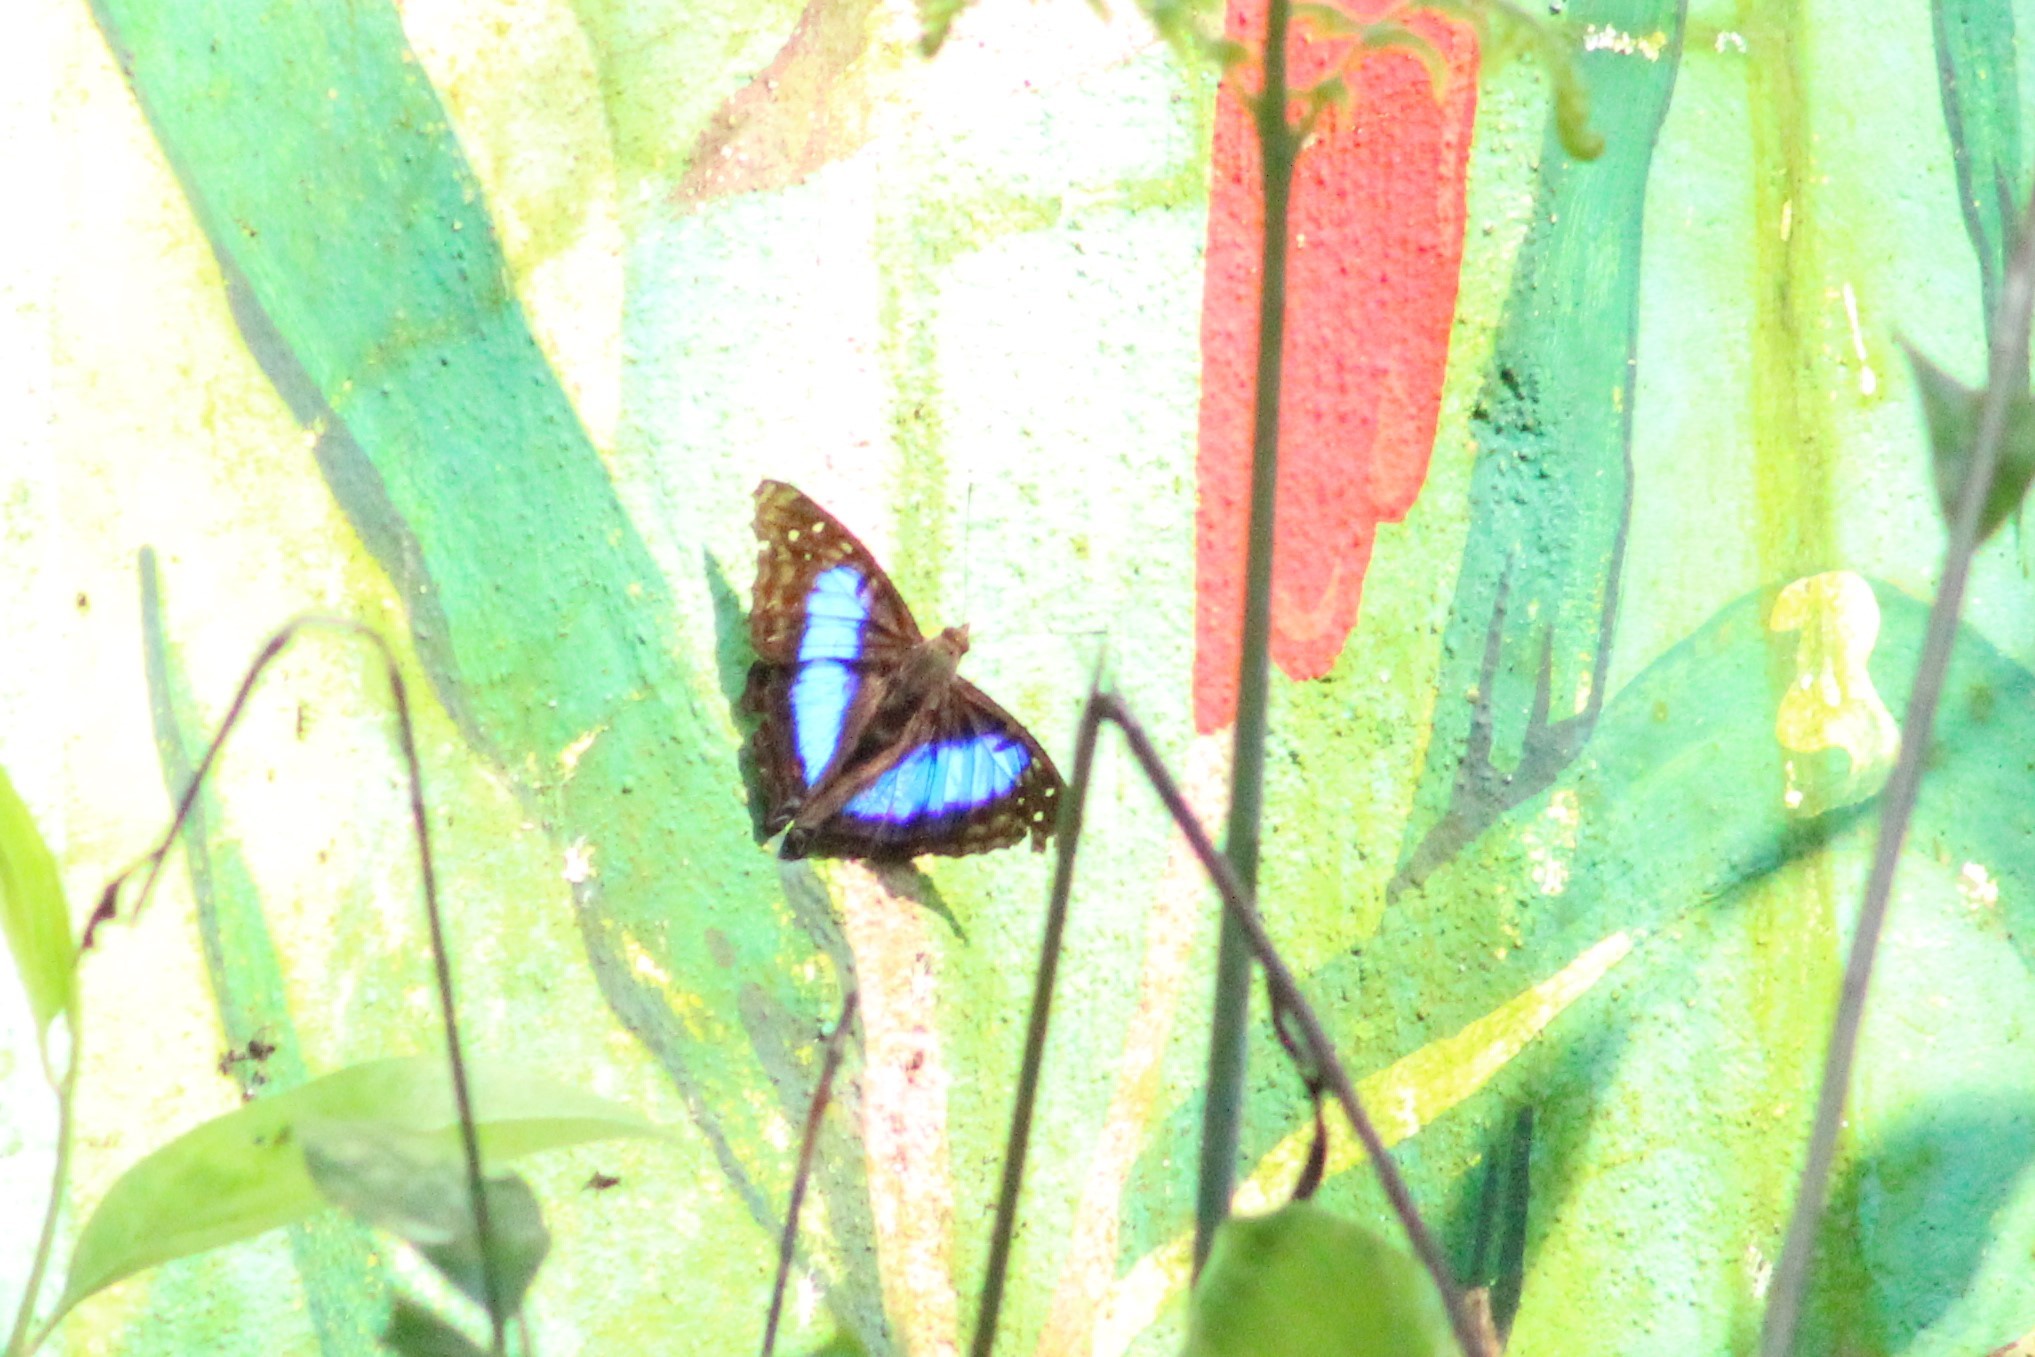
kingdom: Animalia
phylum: Arthropoda
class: Insecta
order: Lepidoptera
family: Nymphalidae
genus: Doxocopa
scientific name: Doxocopa laurentia
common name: Turquoise emperor
